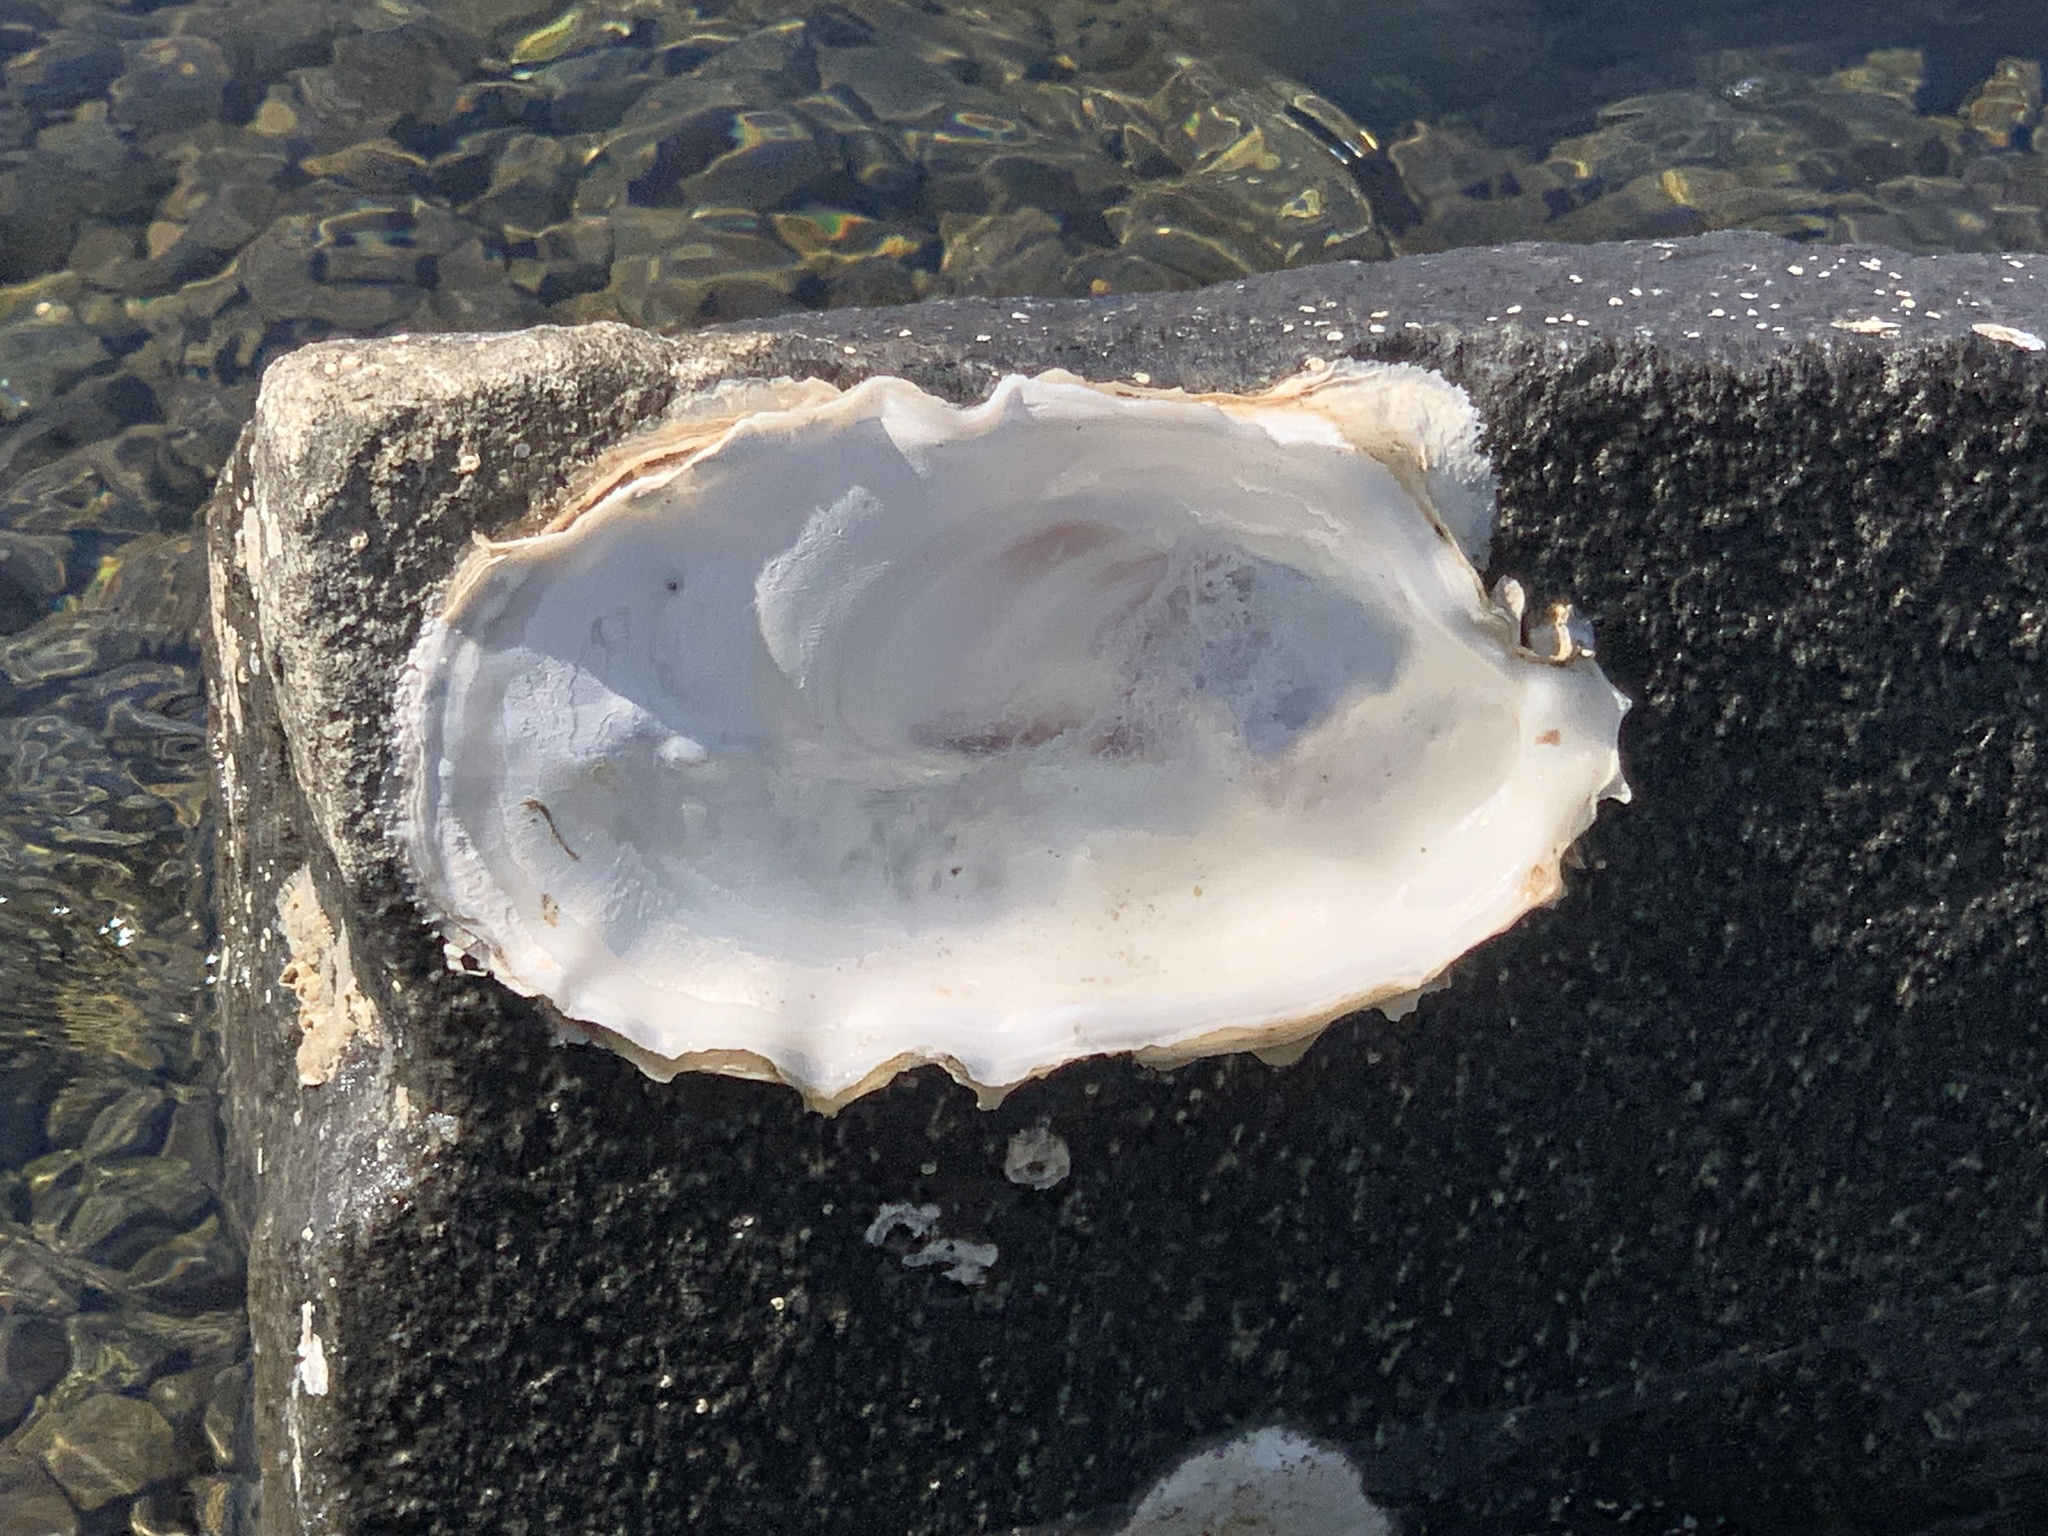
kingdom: Animalia
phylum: Mollusca
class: Bivalvia
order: Ostreida
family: Ostreidae
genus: Magallana
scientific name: Magallana gigas
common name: Pacific oyster
